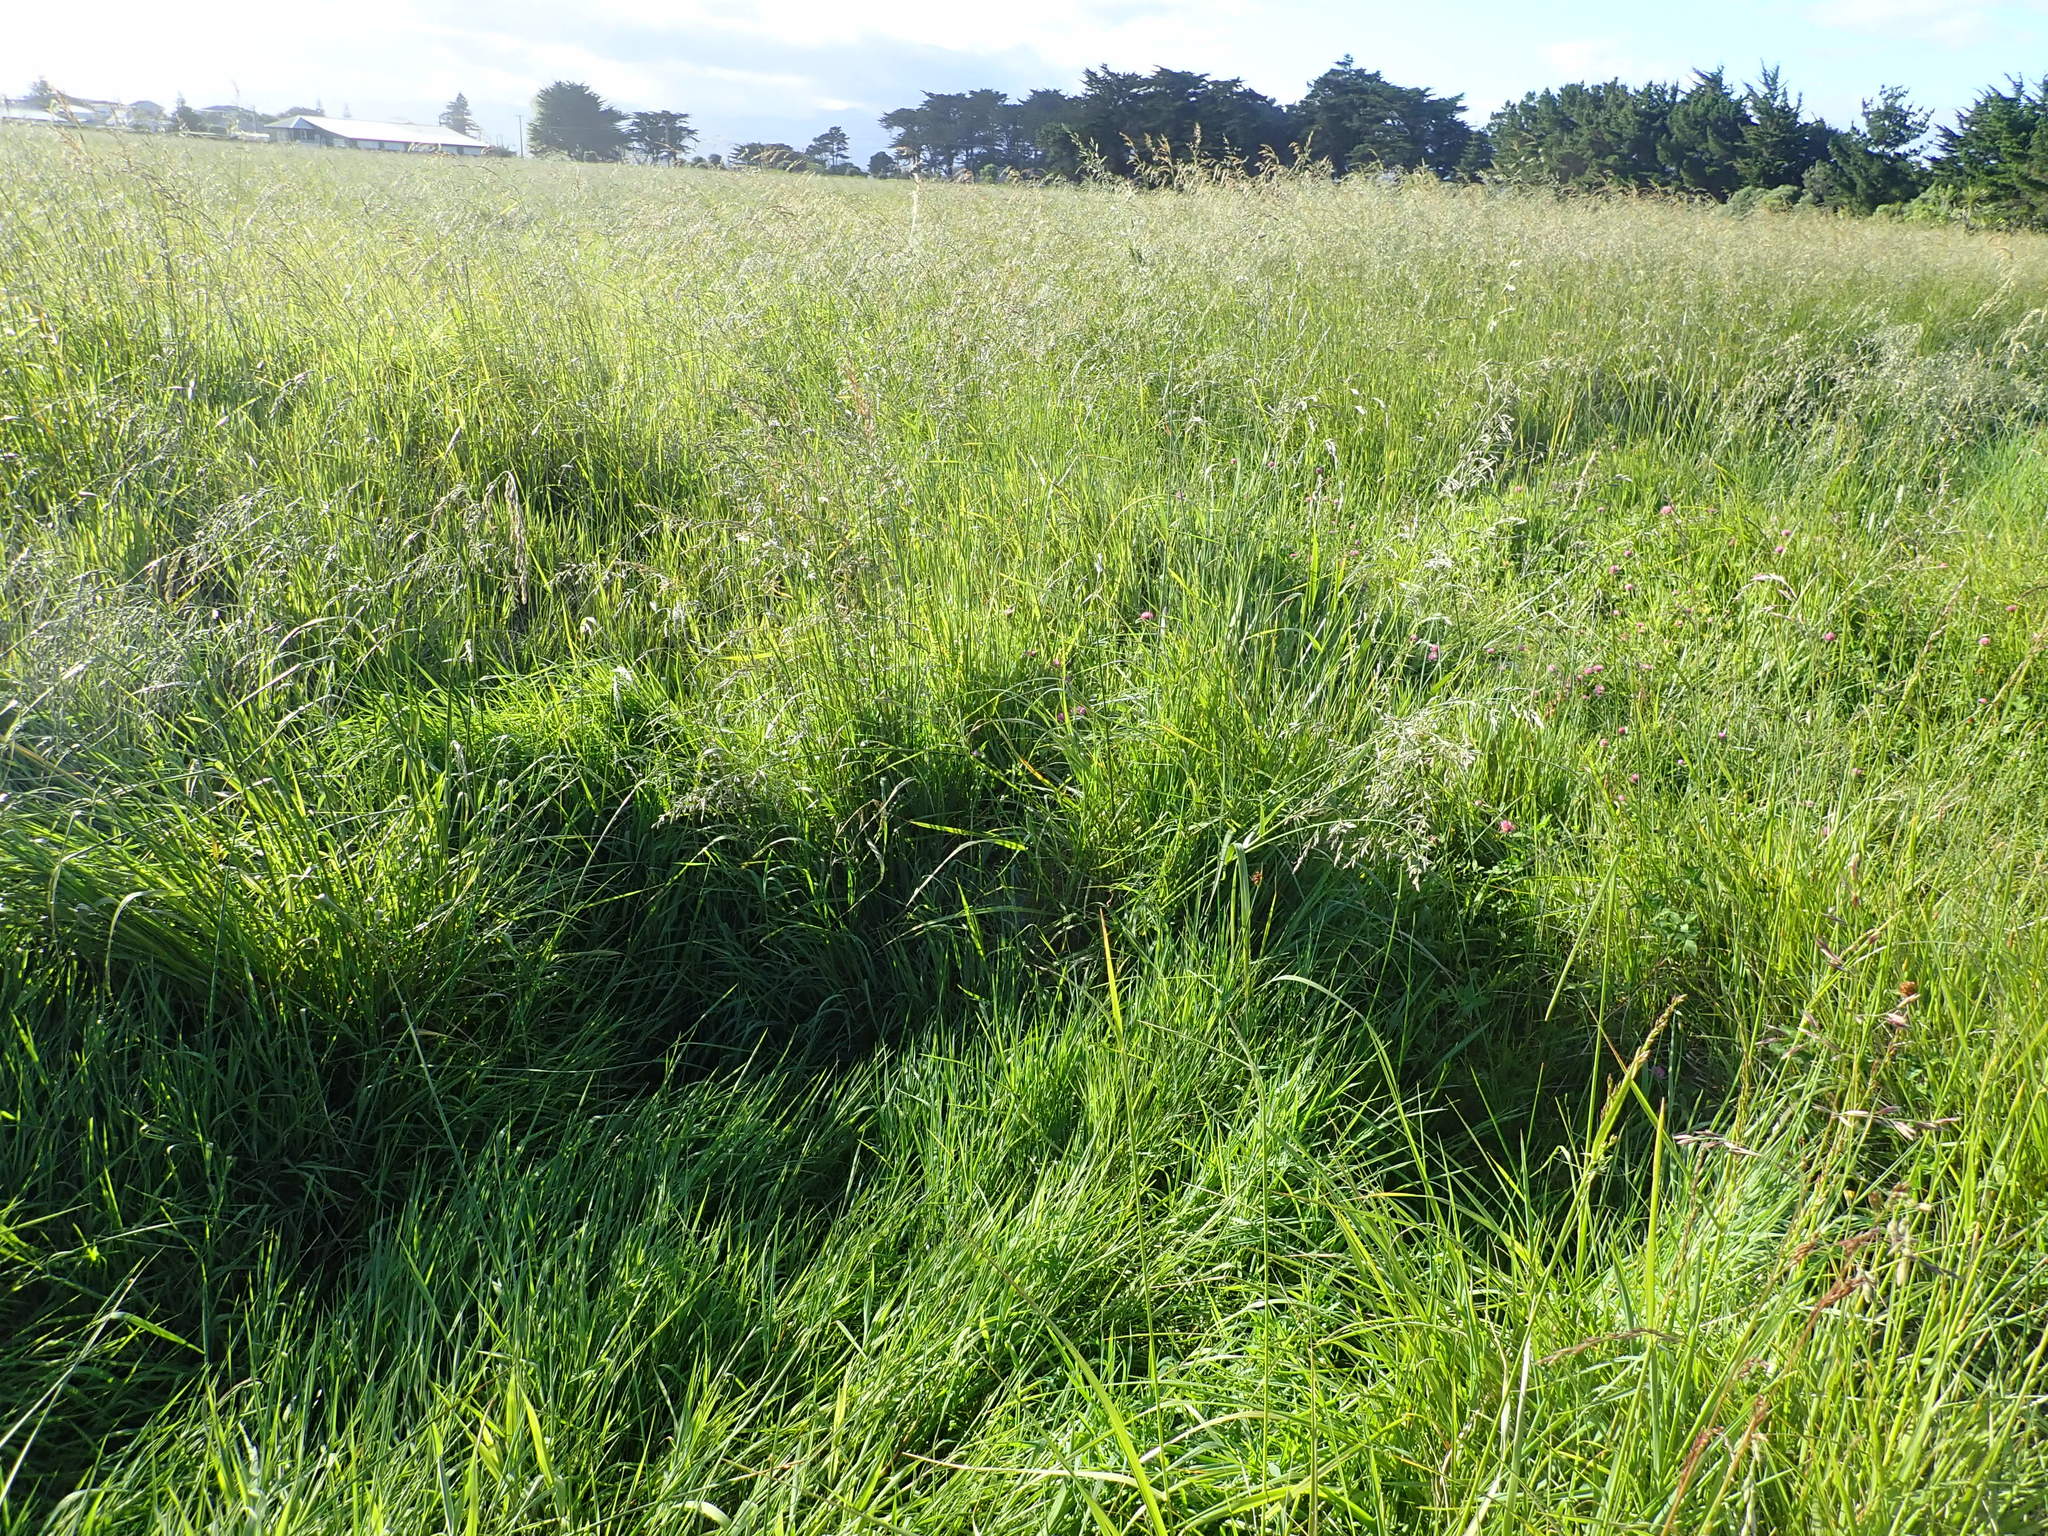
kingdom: Plantae
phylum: Tracheophyta
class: Liliopsida
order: Poales
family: Poaceae
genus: Lolium
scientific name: Lolium arundinaceum
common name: Reed fescue
